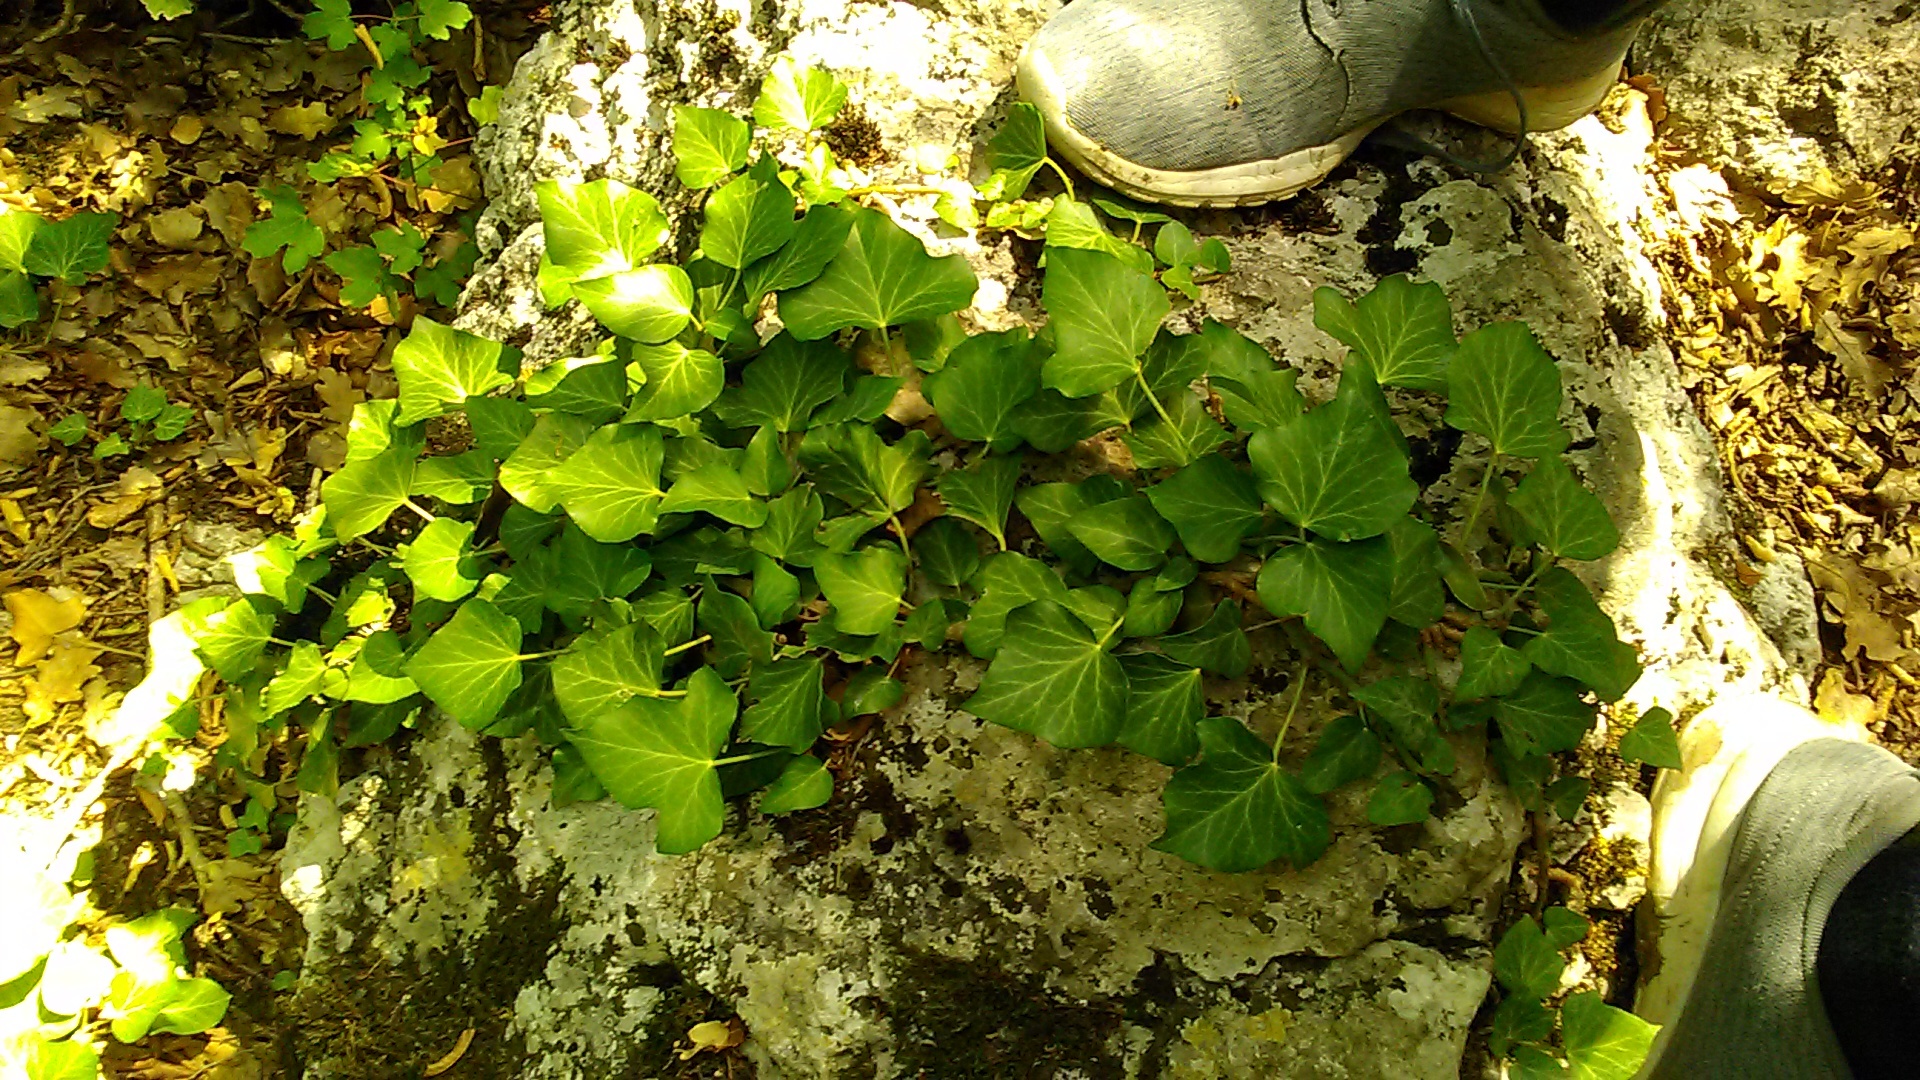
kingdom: Plantae
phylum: Tracheophyta
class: Magnoliopsida
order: Apiales
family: Araliaceae
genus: Hedera
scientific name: Hedera helix
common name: Ivy
